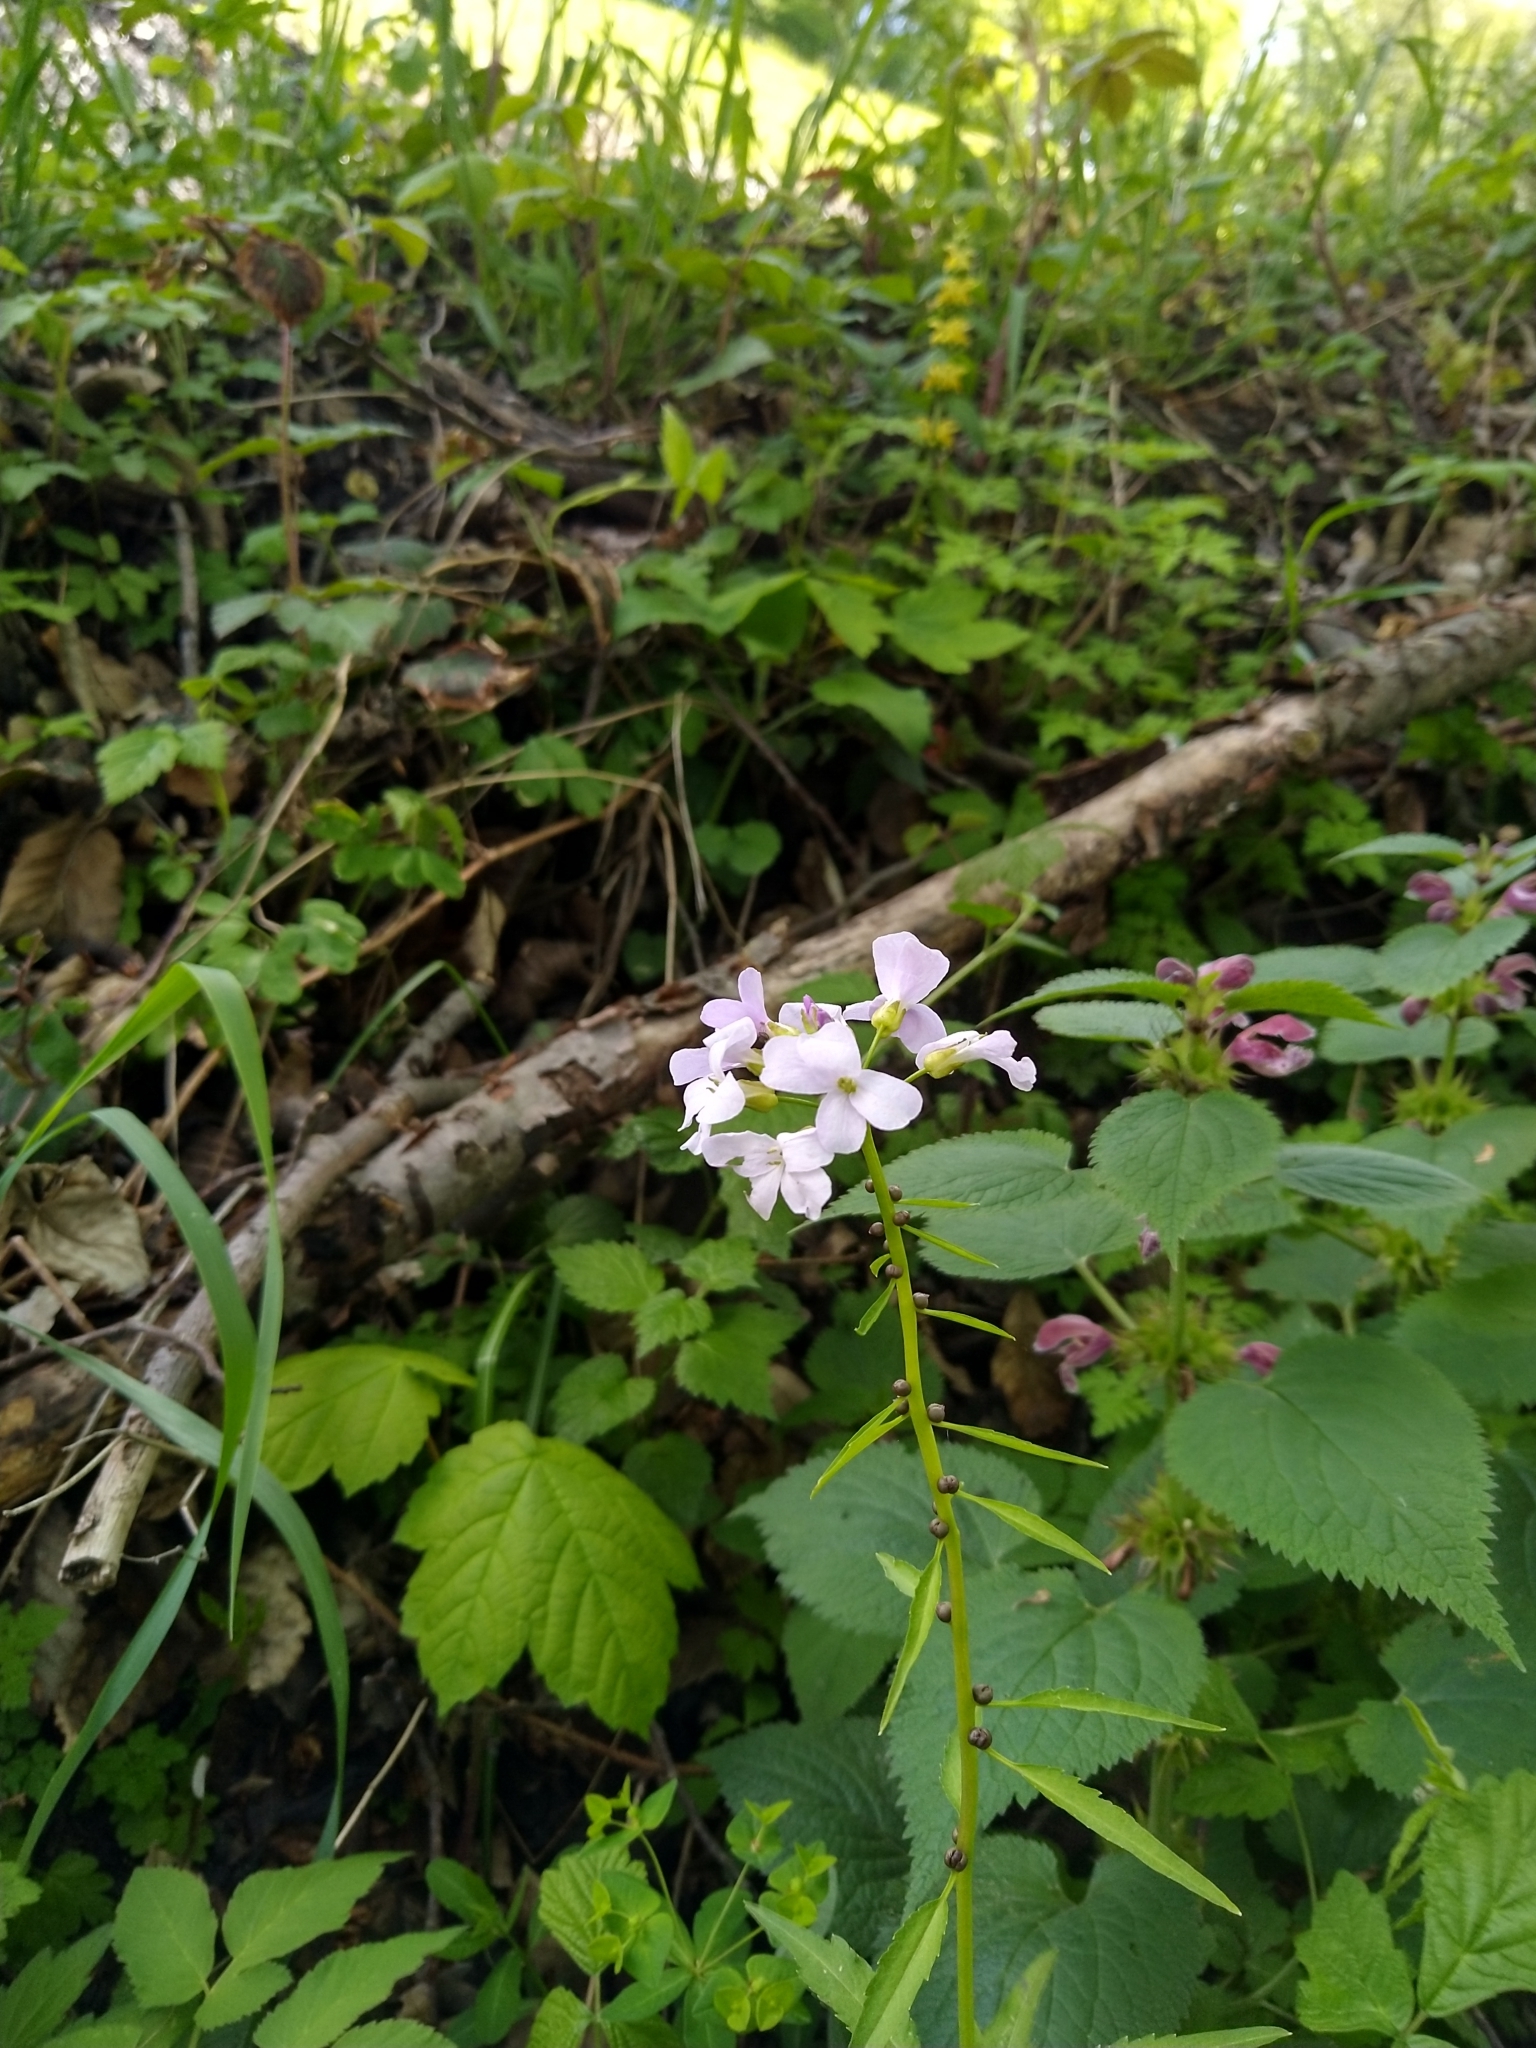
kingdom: Plantae
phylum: Tracheophyta
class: Magnoliopsida
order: Brassicales
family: Brassicaceae
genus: Cardamine
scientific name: Cardamine bulbifera
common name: Coralroot bittercress
